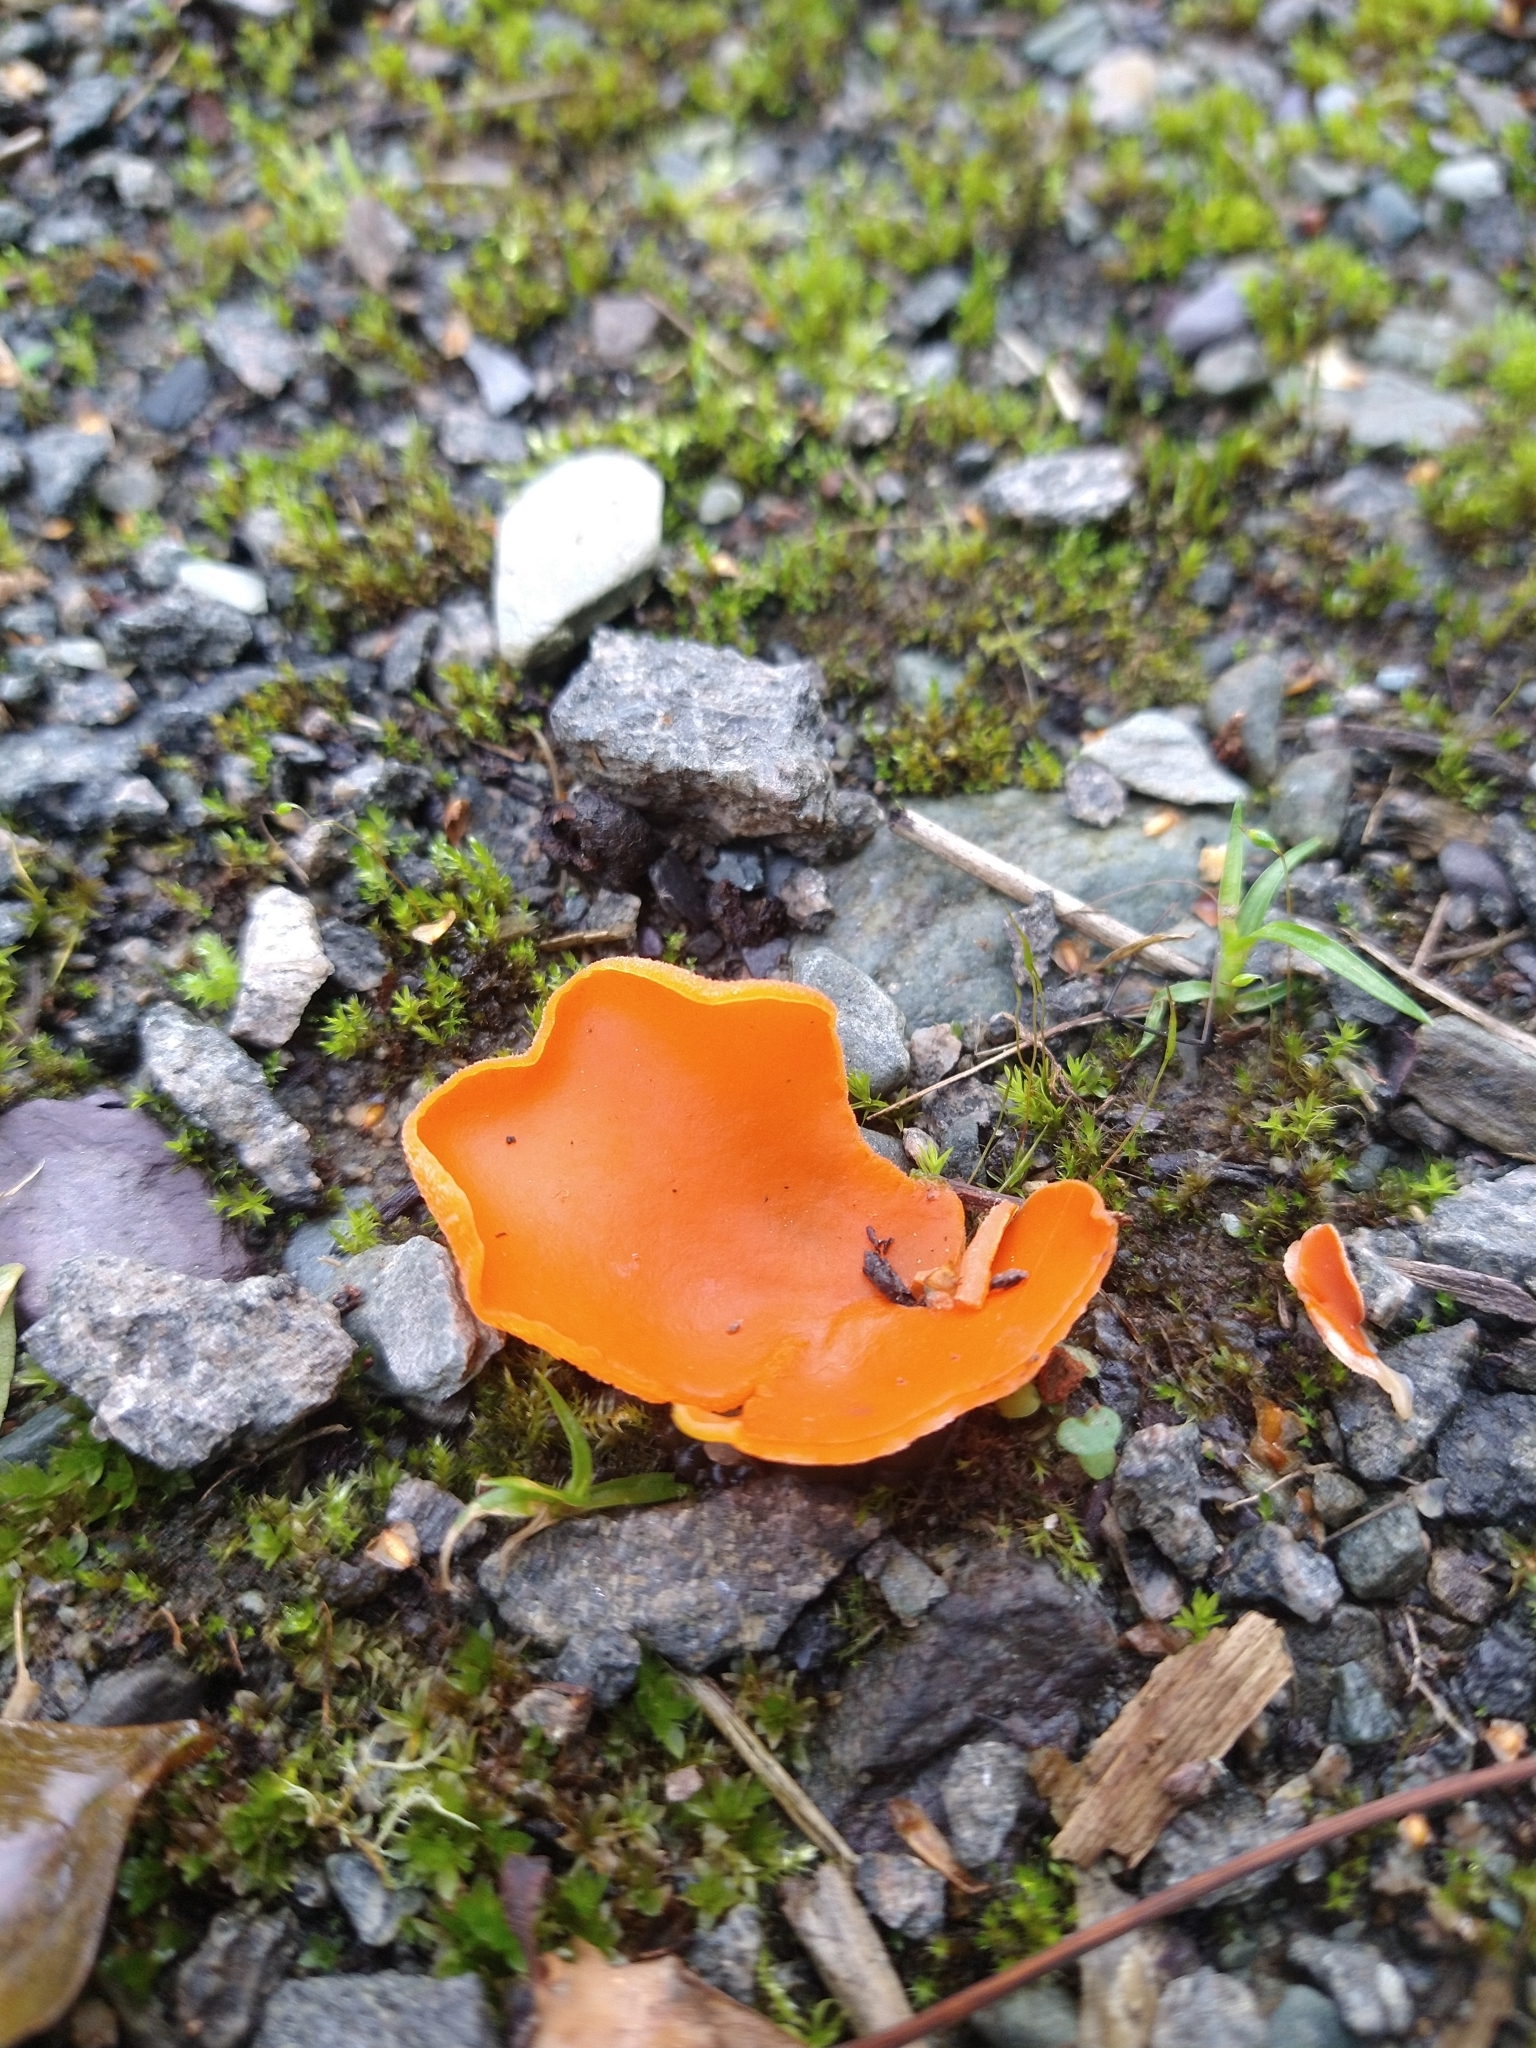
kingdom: Fungi
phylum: Ascomycota
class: Pezizomycetes
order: Pezizales
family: Pyronemataceae
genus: Aleuria
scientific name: Aleuria aurantia
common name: Orange peel fungus
